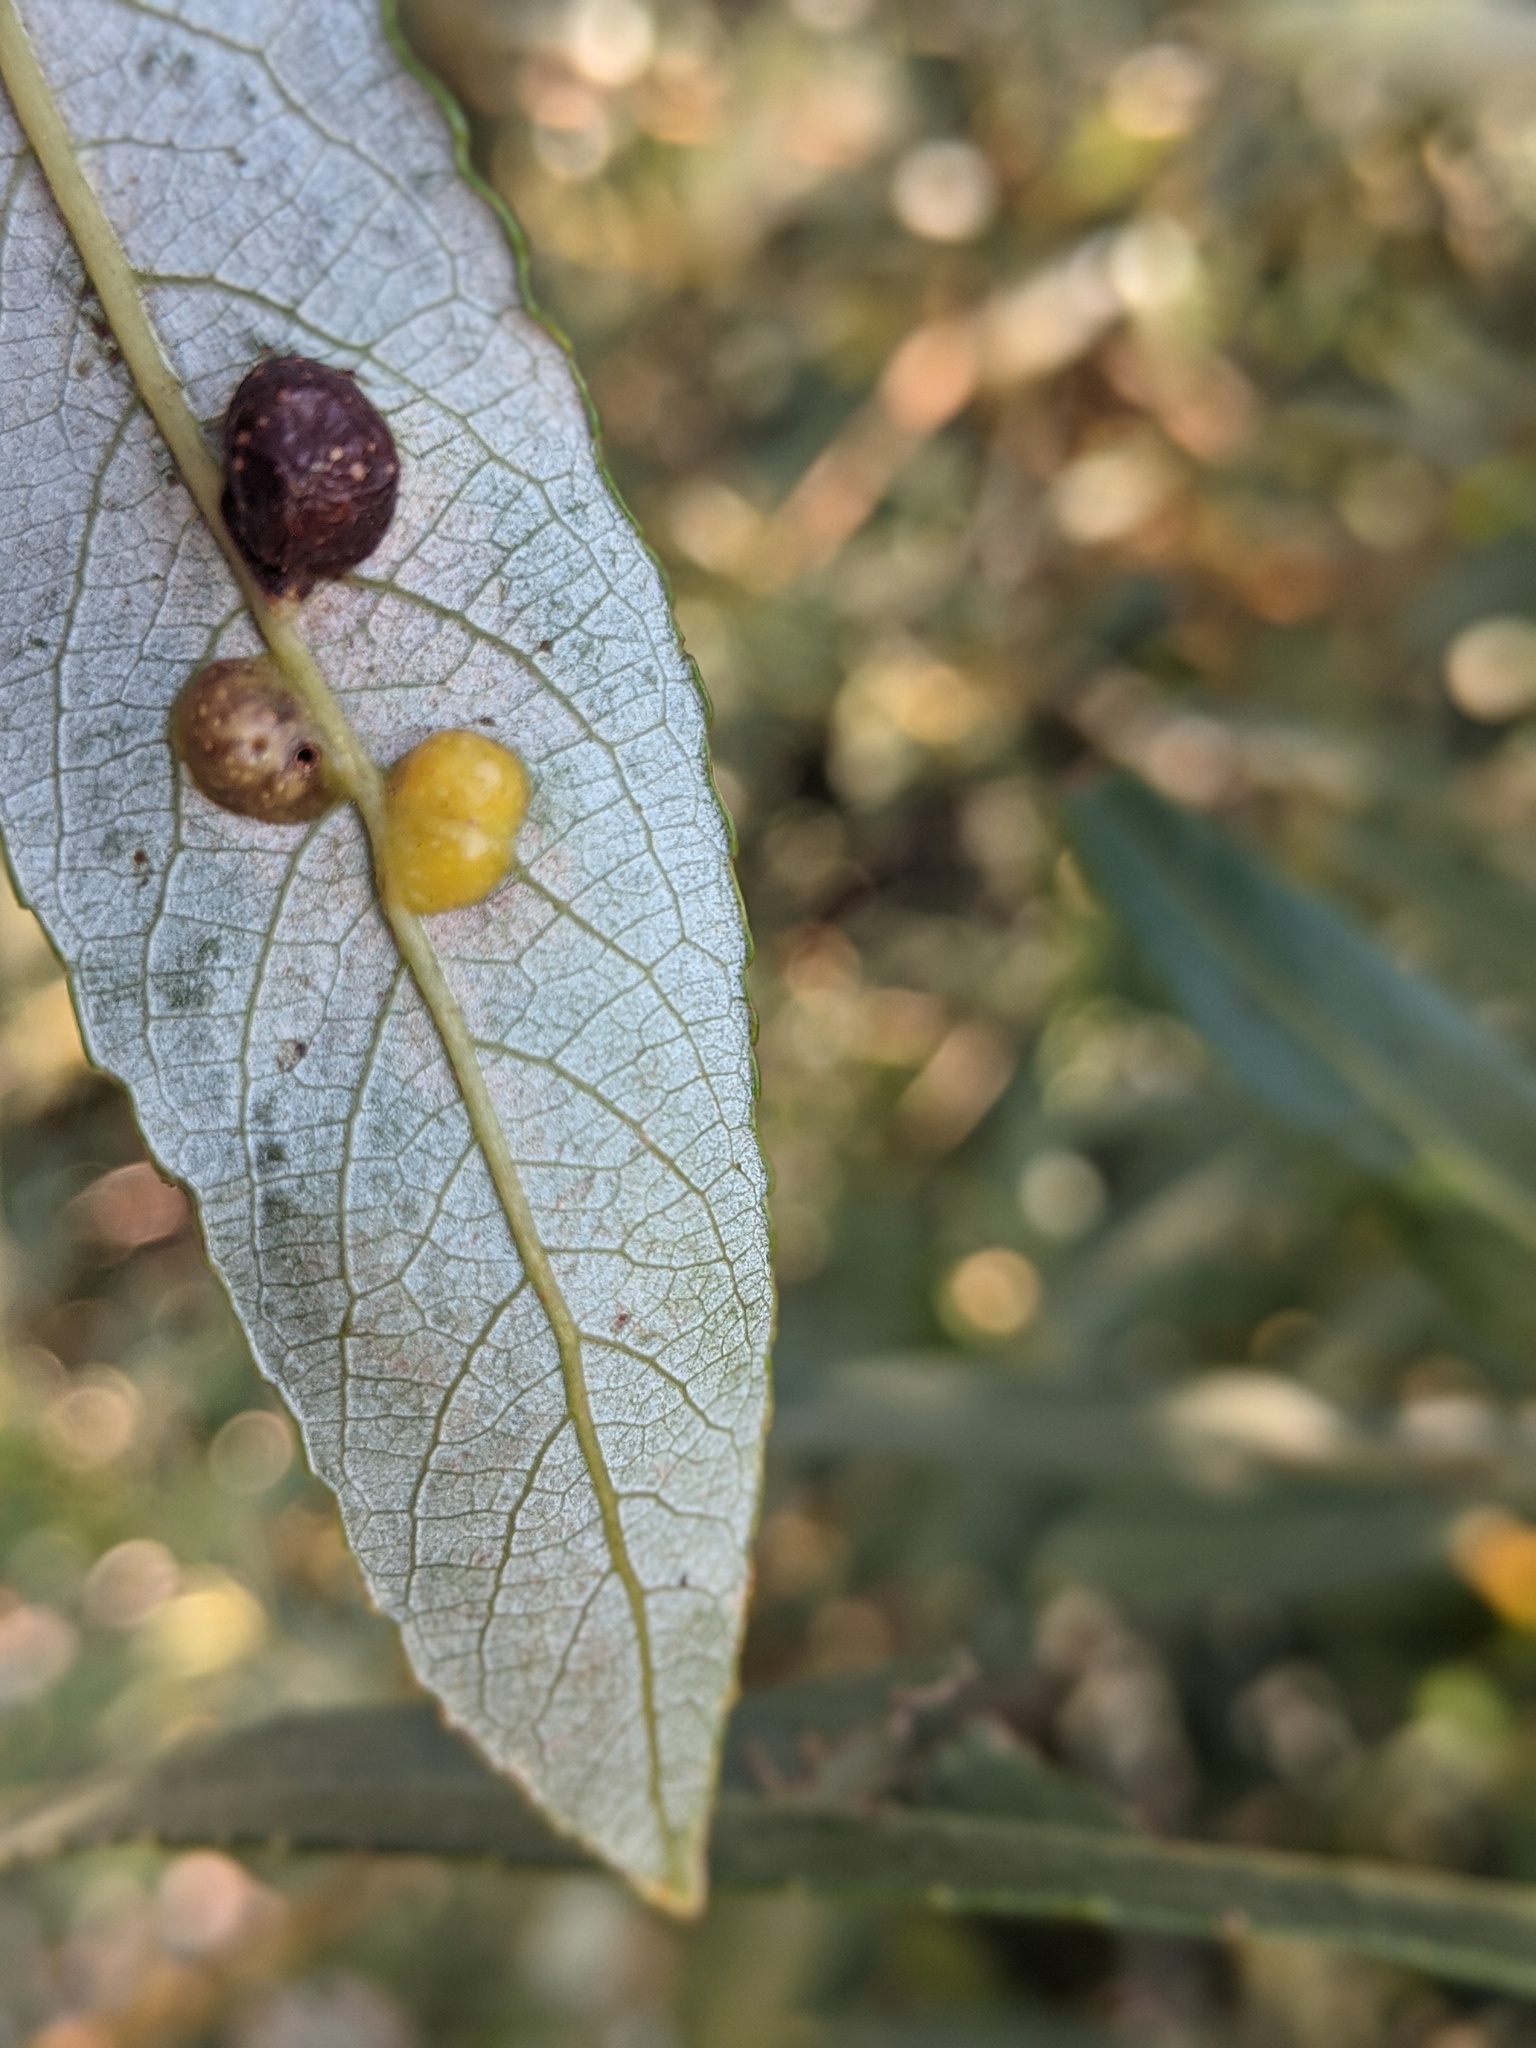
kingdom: Animalia
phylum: Arthropoda
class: Insecta
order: Hymenoptera
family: Tenthredinidae
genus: Euura
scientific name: Euura
